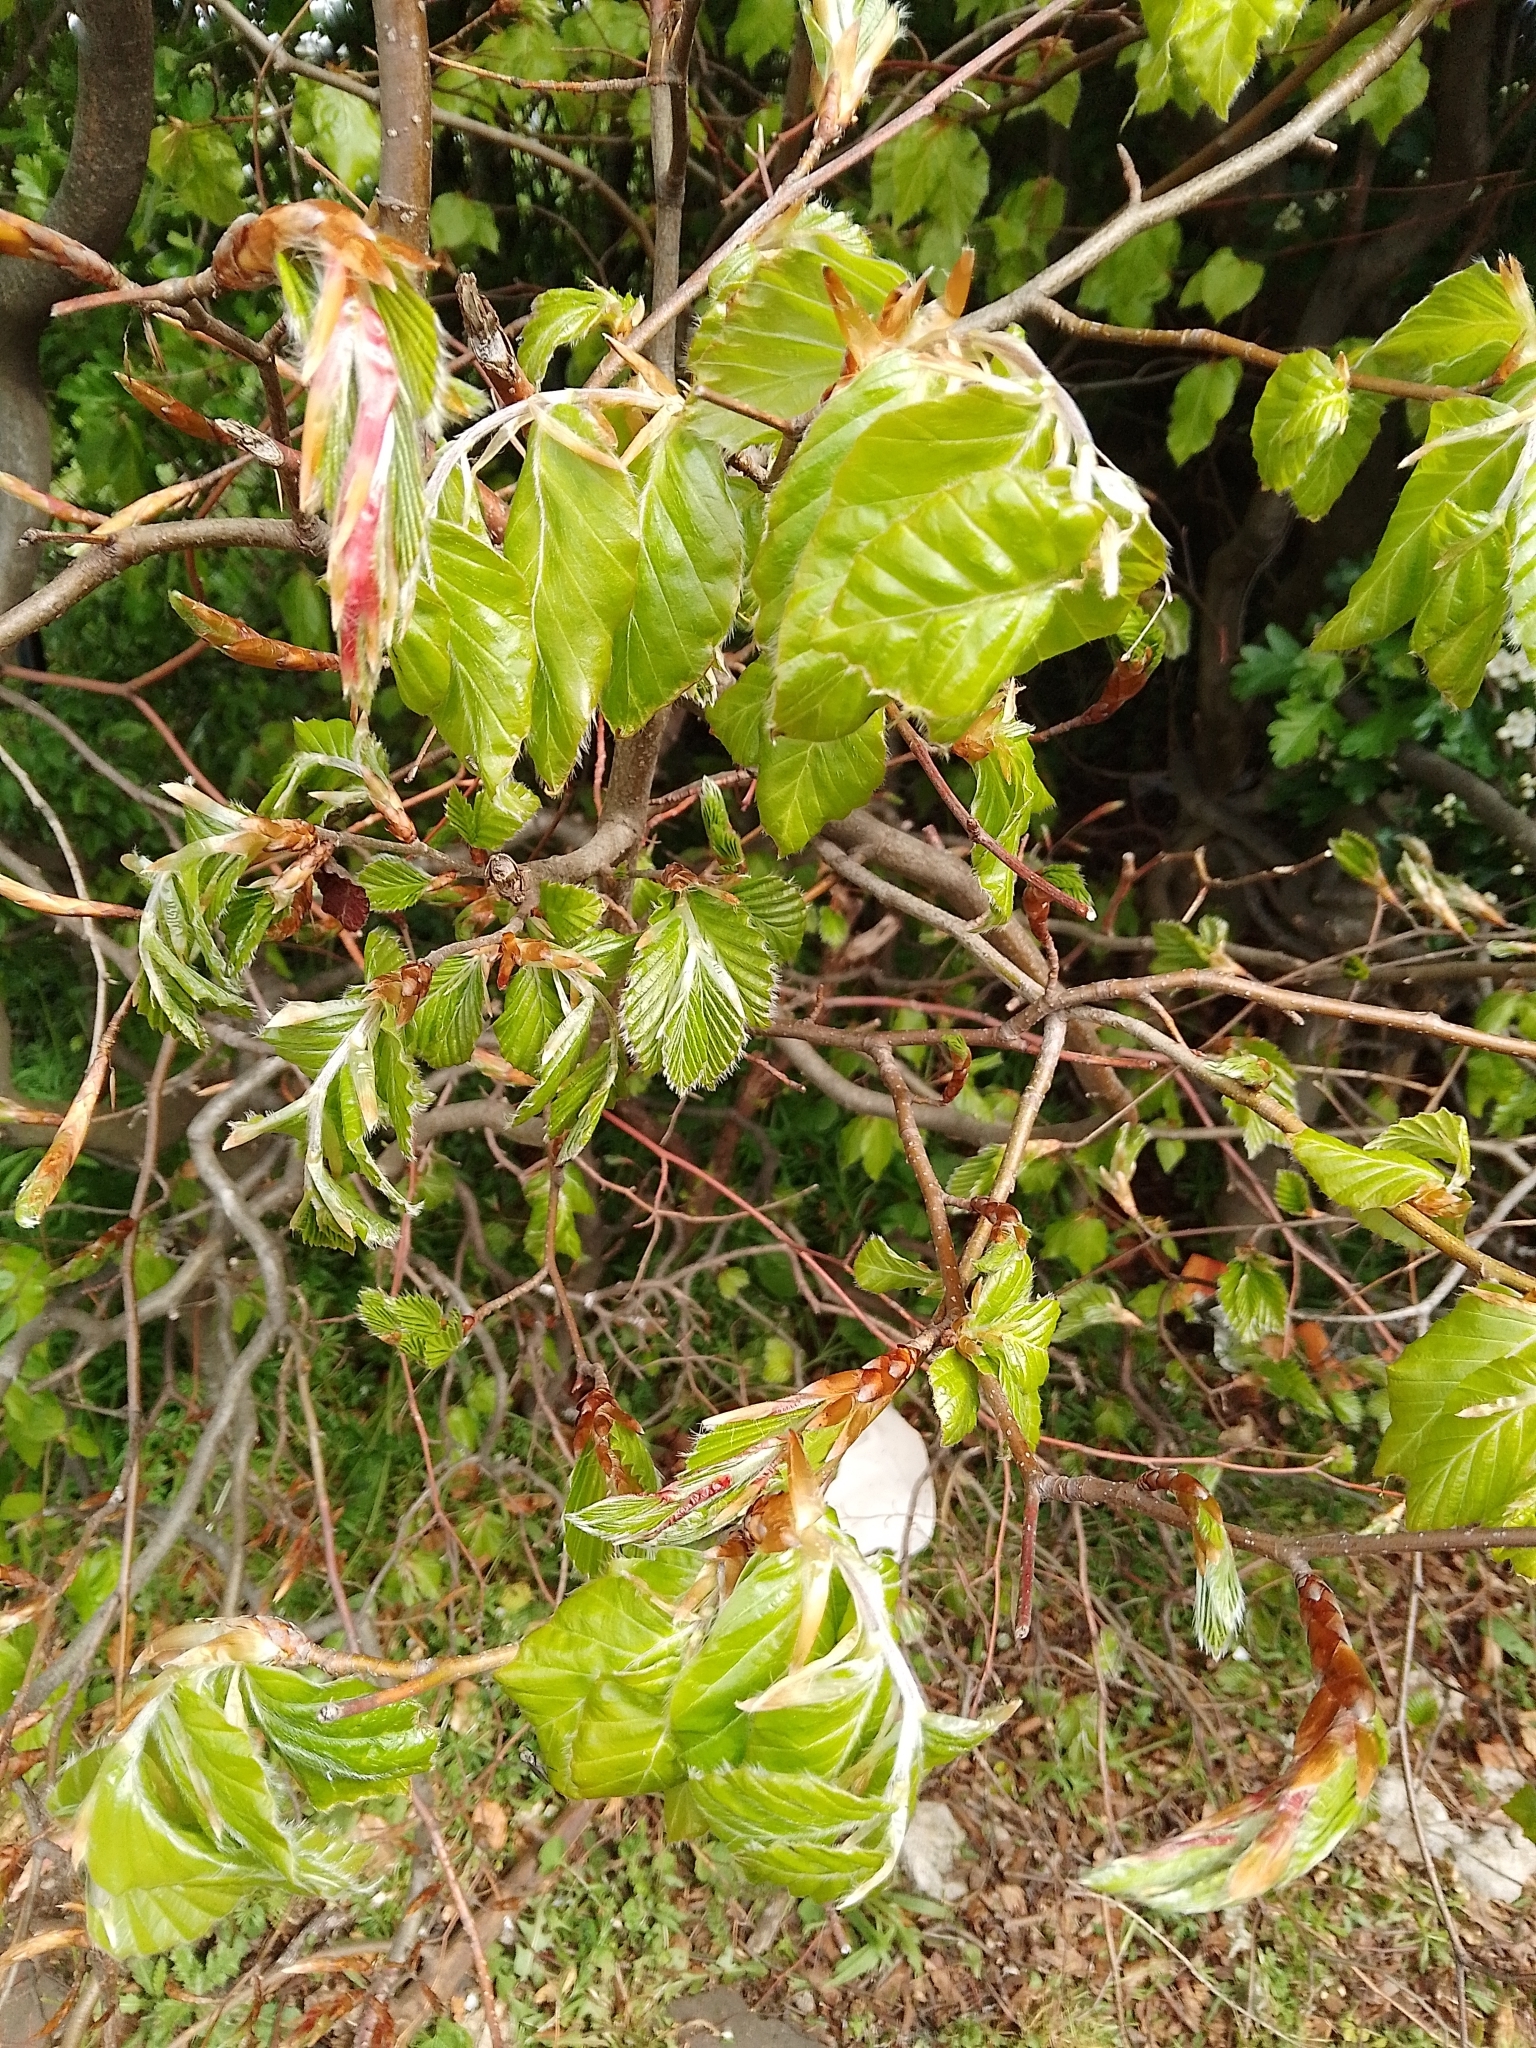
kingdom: Plantae
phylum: Tracheophyta
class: Magnoliopsida
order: Fagales
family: Fagaceae
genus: Fagus
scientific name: Fagus sylvatica
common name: Beech
